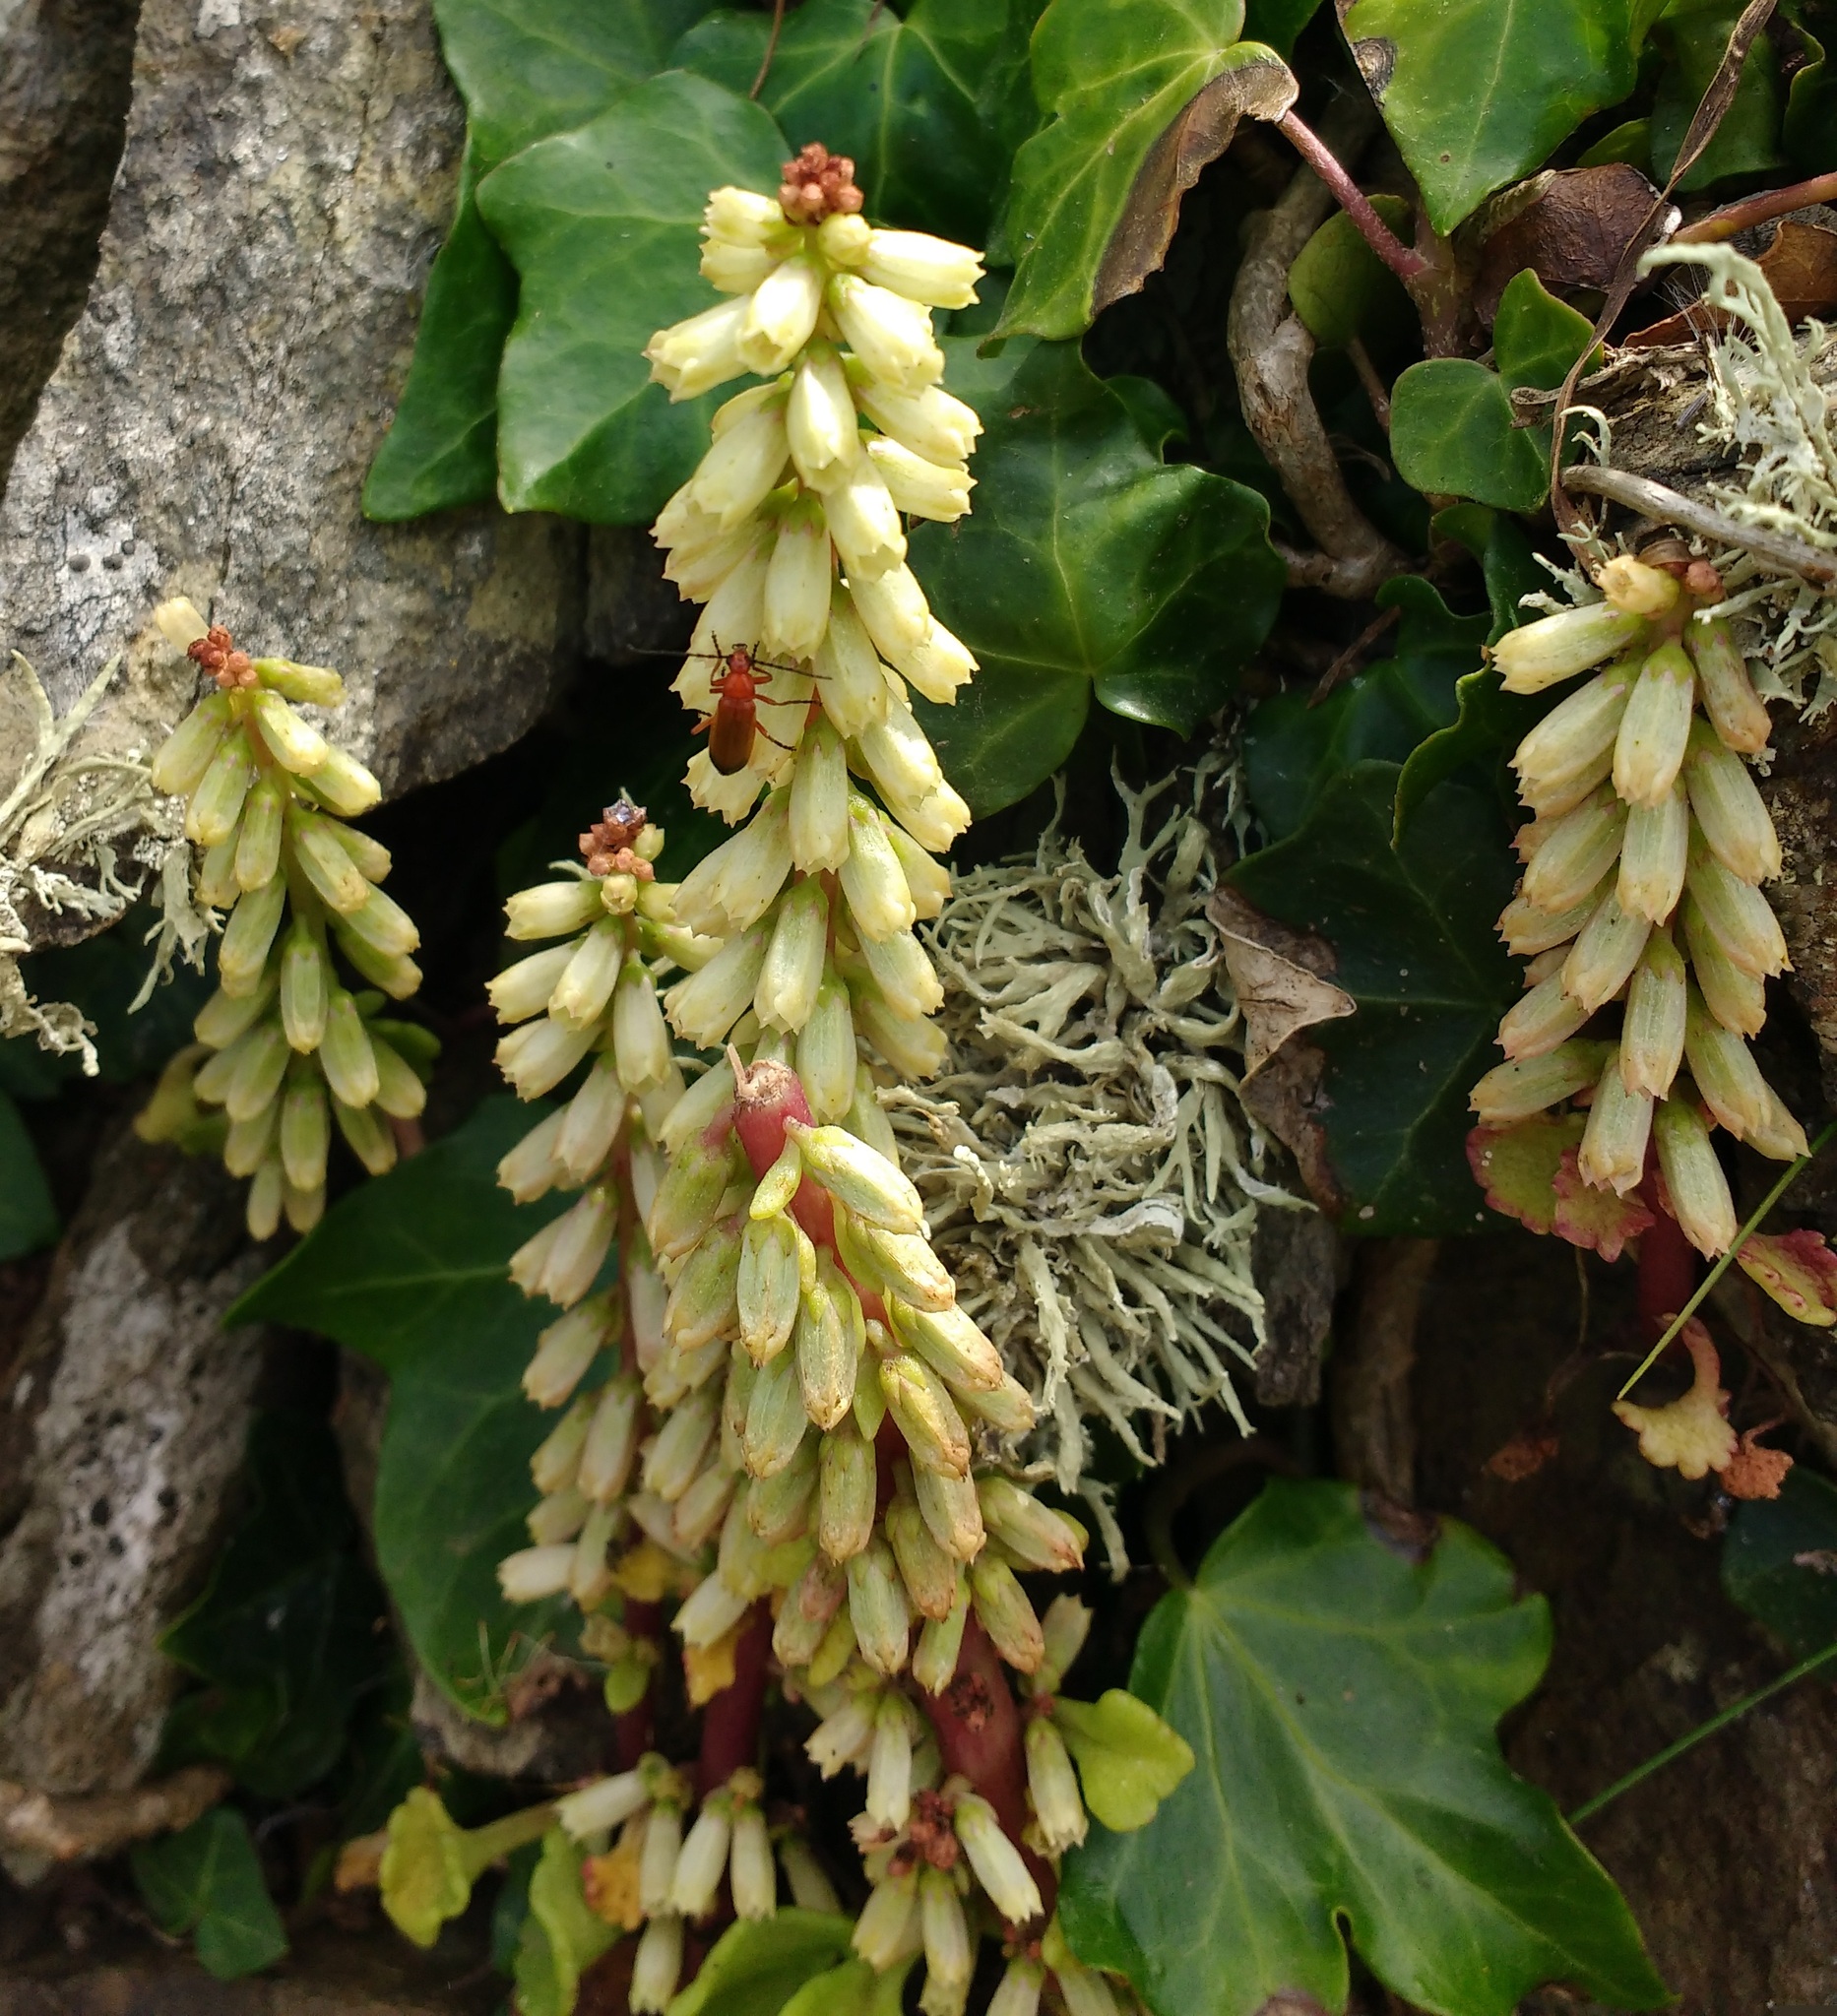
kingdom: Plantae
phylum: Tracheophyta
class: Magnoliopsida
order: Saxifragales
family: Crassulaceae
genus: Umbilicus
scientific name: Umbilicus rupestris
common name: Navelwort
